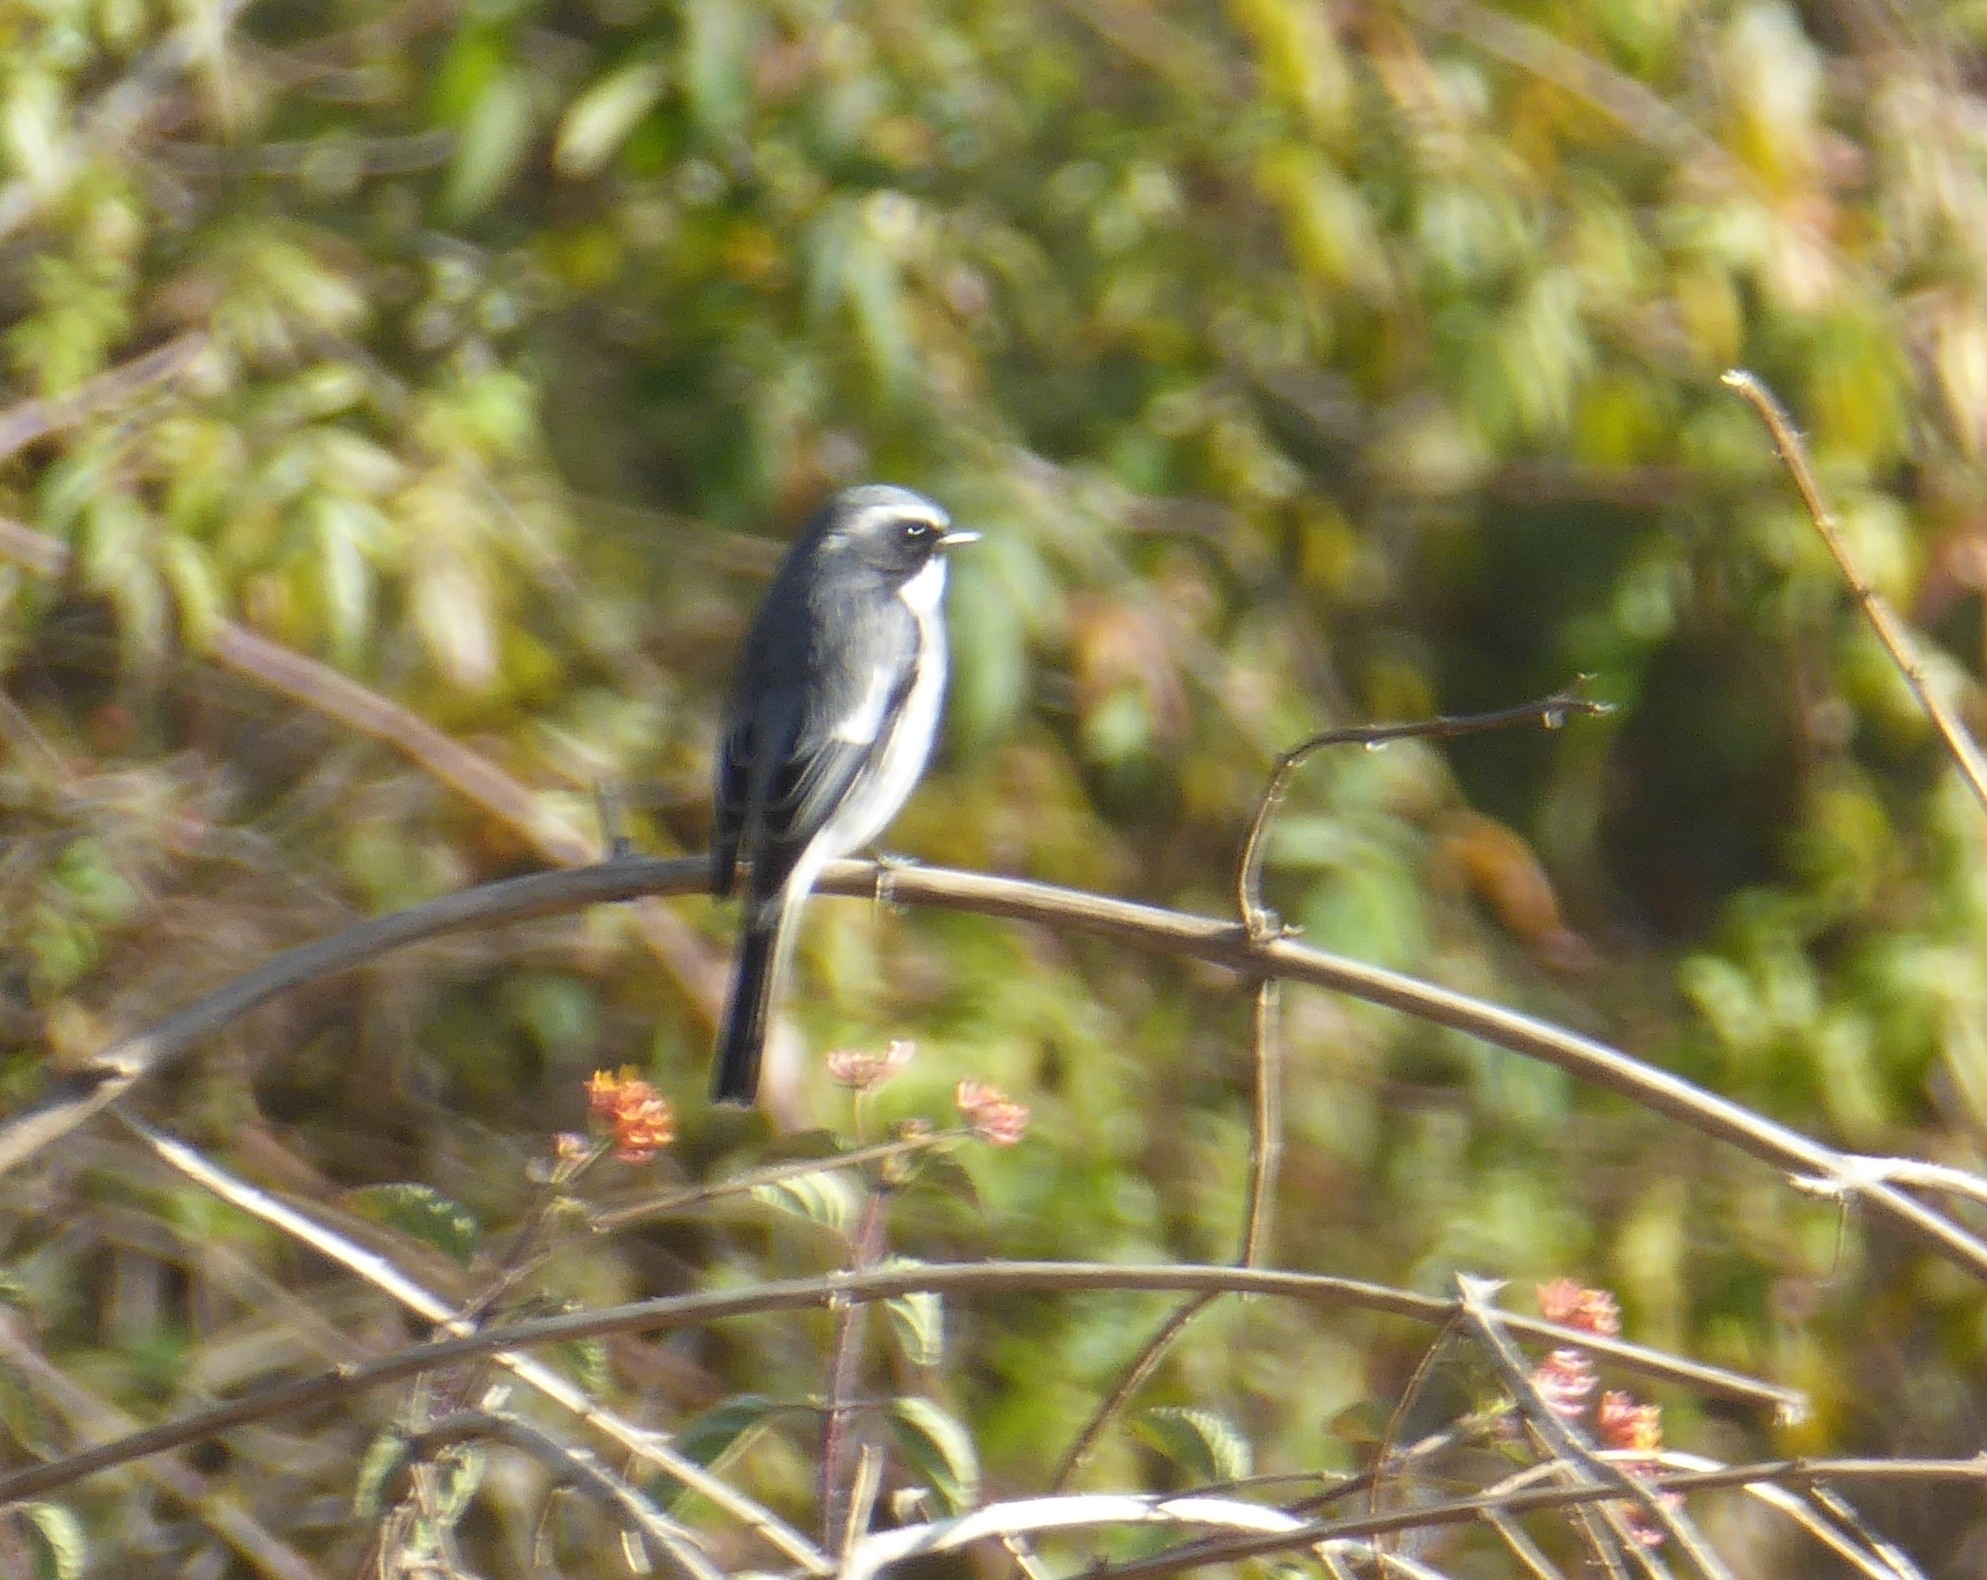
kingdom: Animalia
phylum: Chordata
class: Aves
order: Passeriformes
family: Muscicapidae
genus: Saxicola
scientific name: Saxicola ferreus
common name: Grey bush chat
